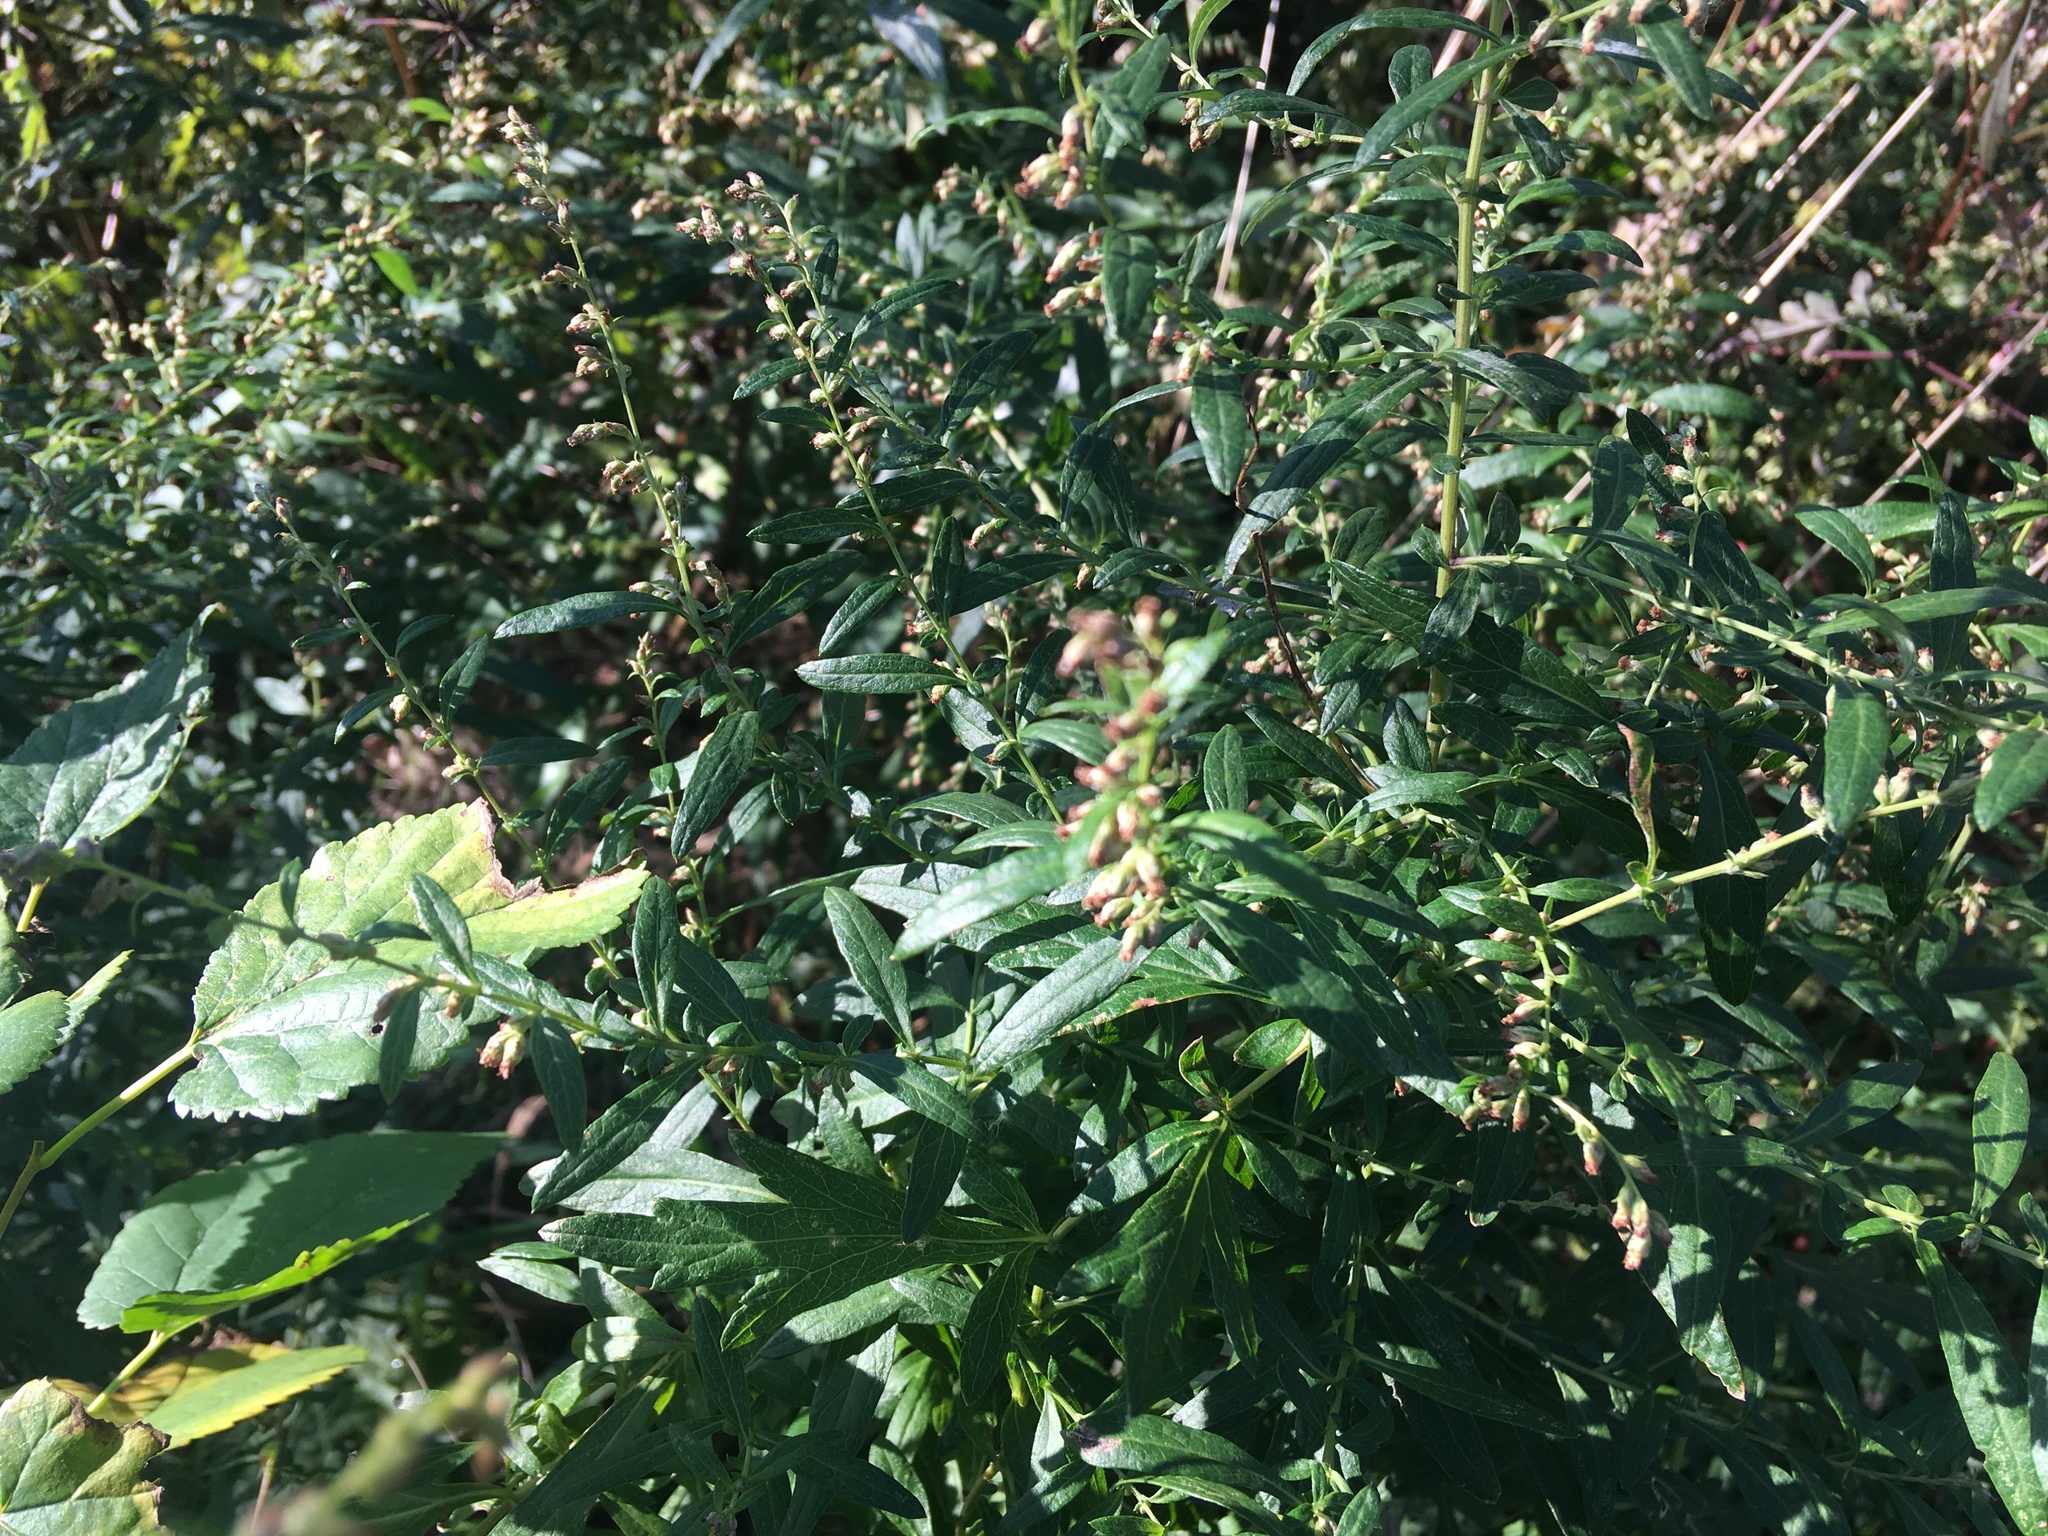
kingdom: Plantae
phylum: Tracheophyta
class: Magnoliopsida
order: Asterales
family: Asteraceae
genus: Artemisia
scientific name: Artemisia vulgaris
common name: Mugwort
